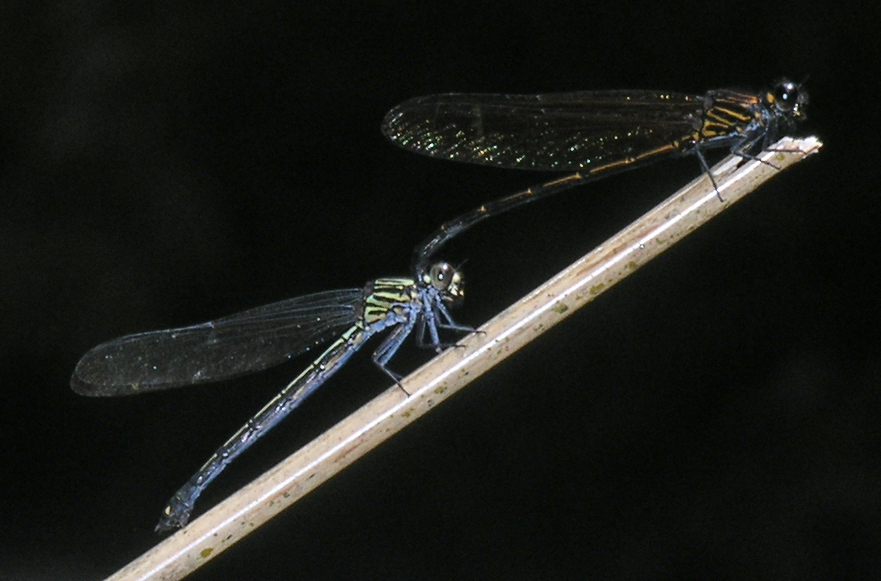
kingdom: Animalia
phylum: Arthropoda
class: Insecta
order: Odonata
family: Euphaeidae
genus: Dysphaea
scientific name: Dysphaea gloriosa
